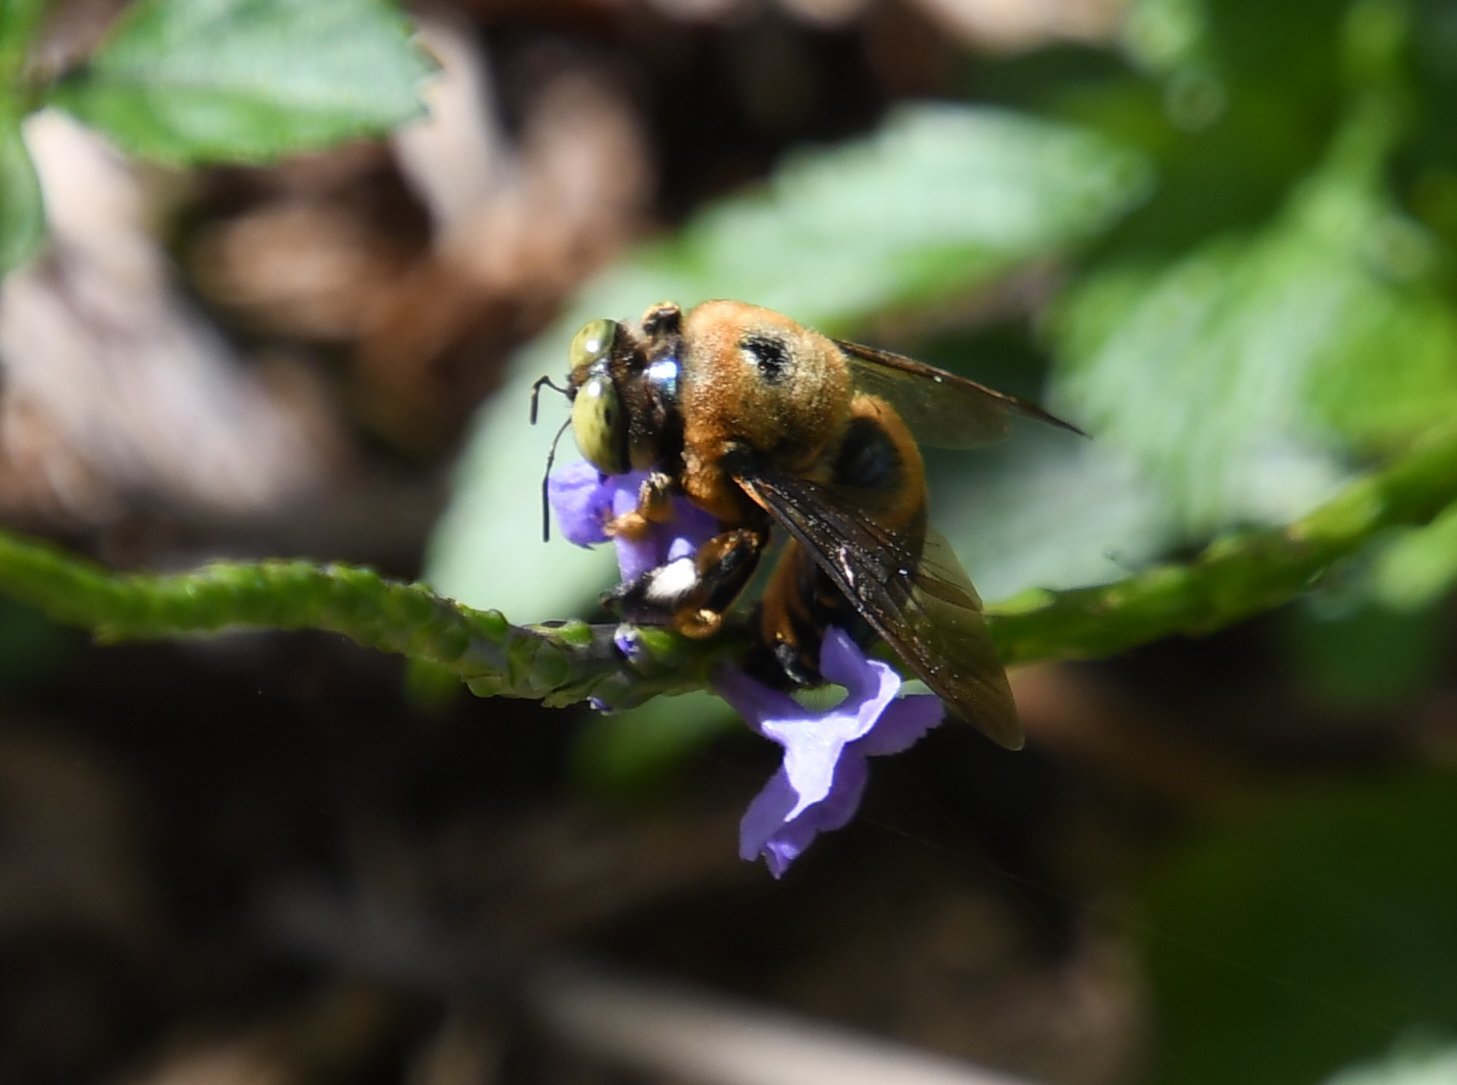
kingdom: Animalia
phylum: Arthropoda
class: Insecta
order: Hymenoptera
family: Apidae
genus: Xylocopa
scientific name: Xylocopa micans
